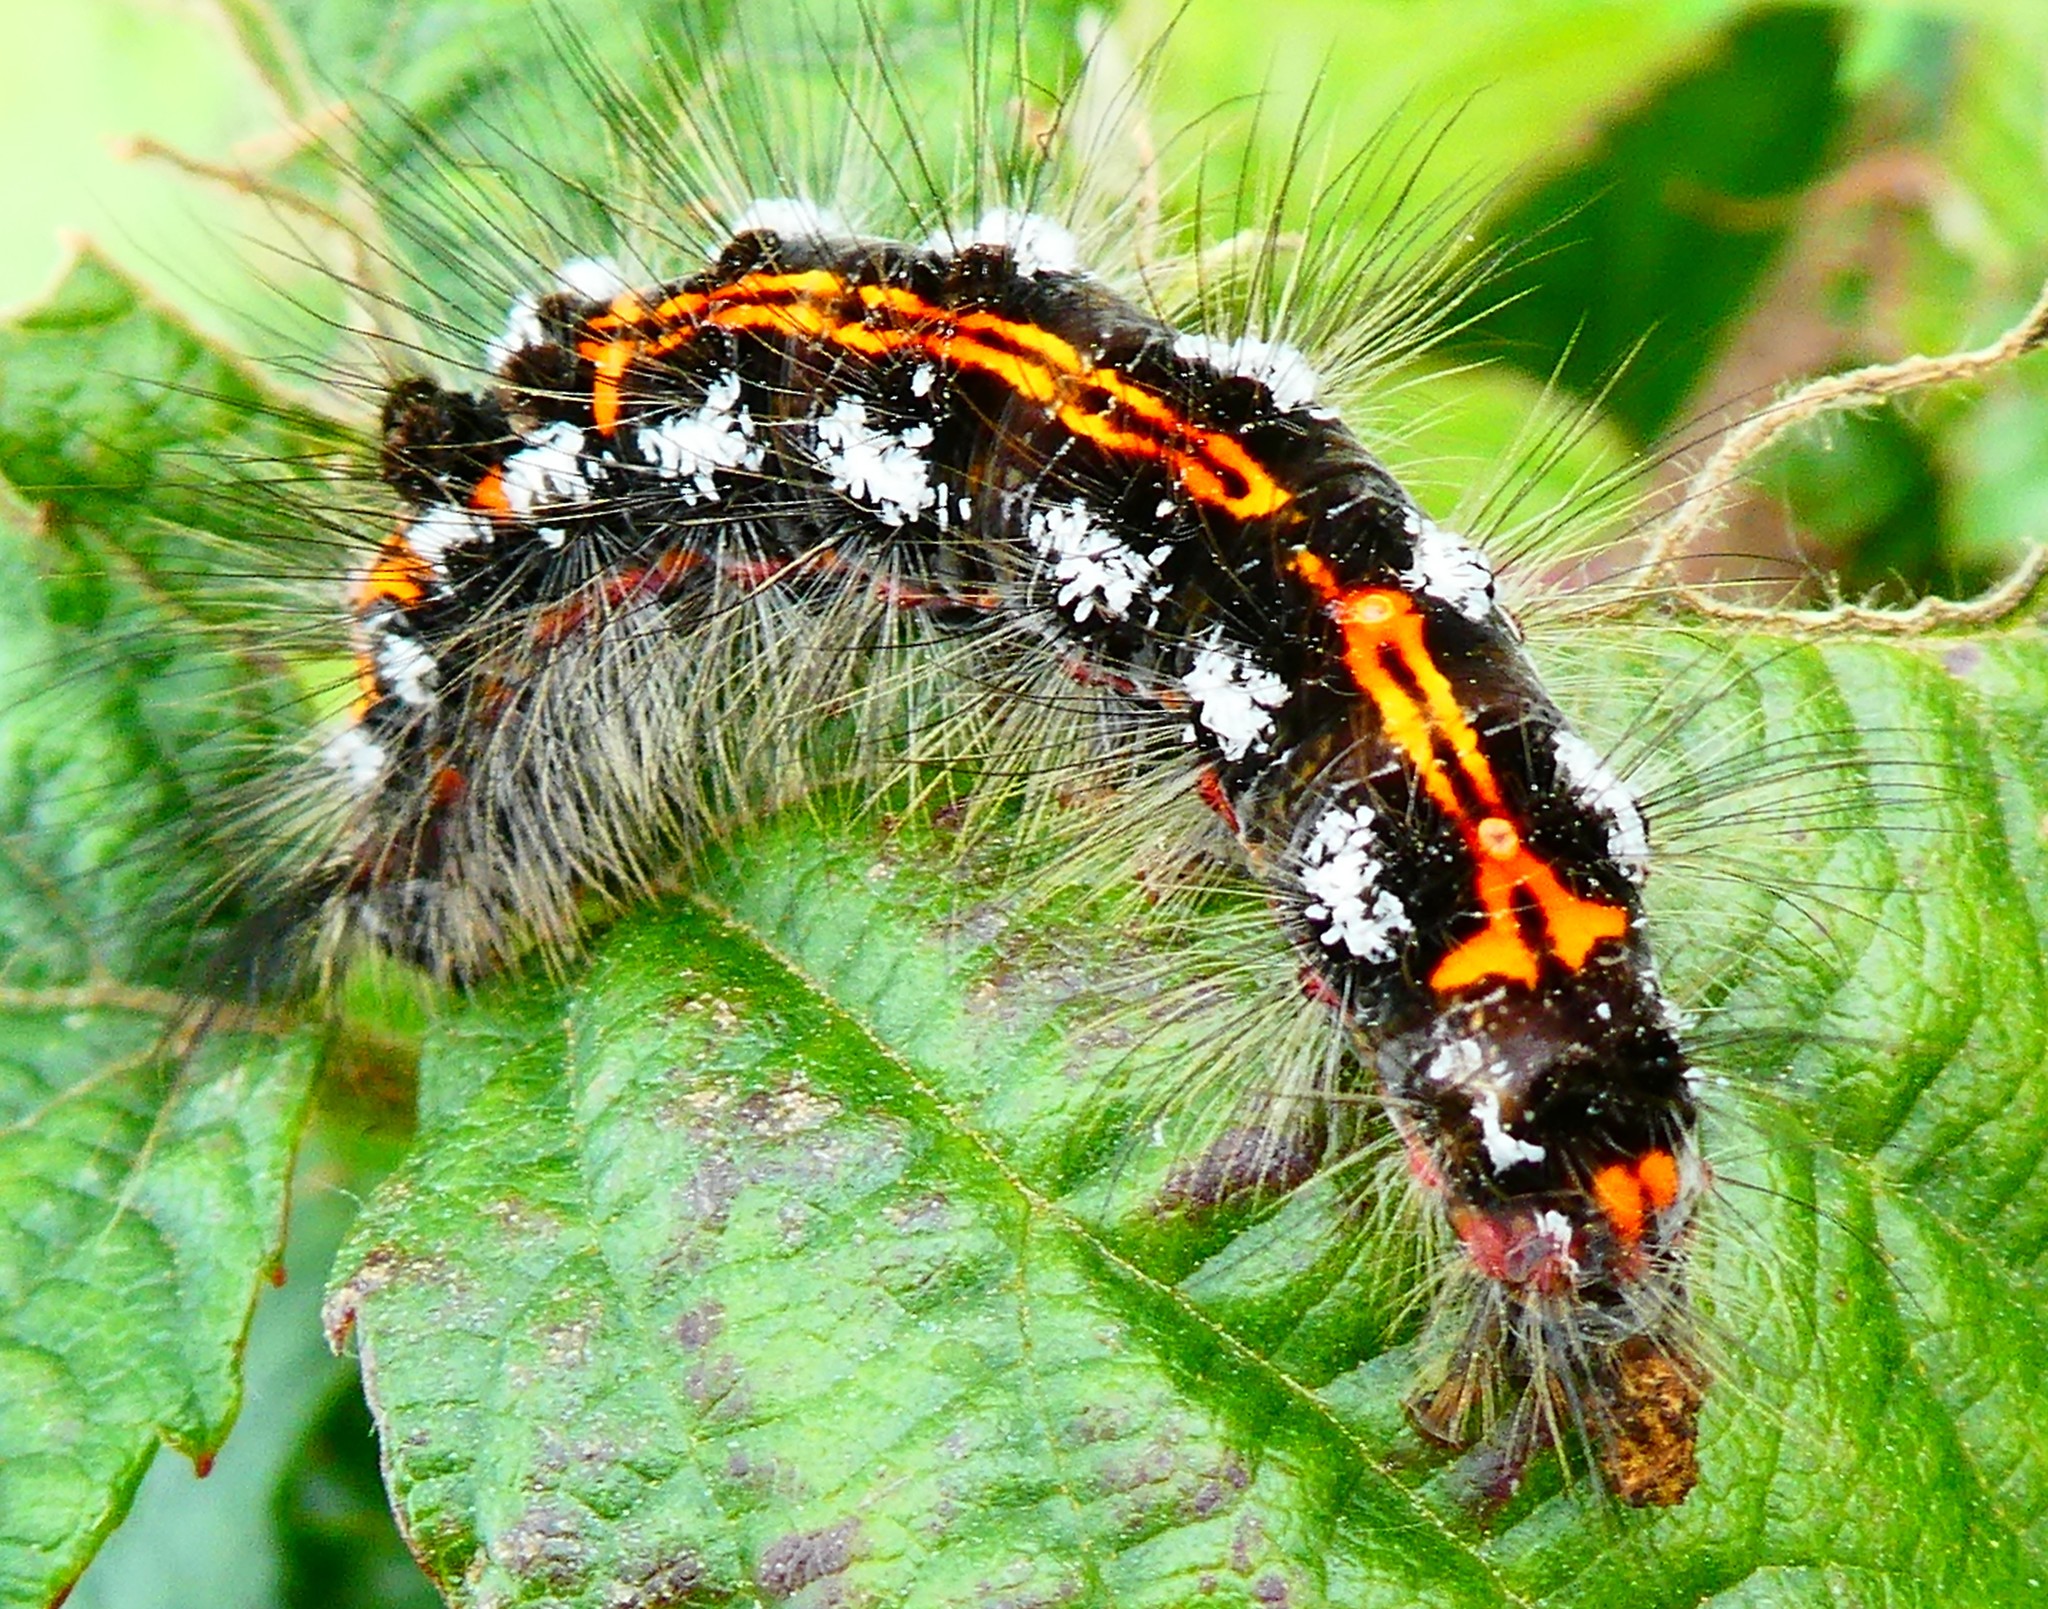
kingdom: Animalia
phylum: Arthropoda
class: Insecta
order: Lepidoptera
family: Erebidae
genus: Sphrageidus
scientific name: Sphrageidus similis
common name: Yellow-tail
